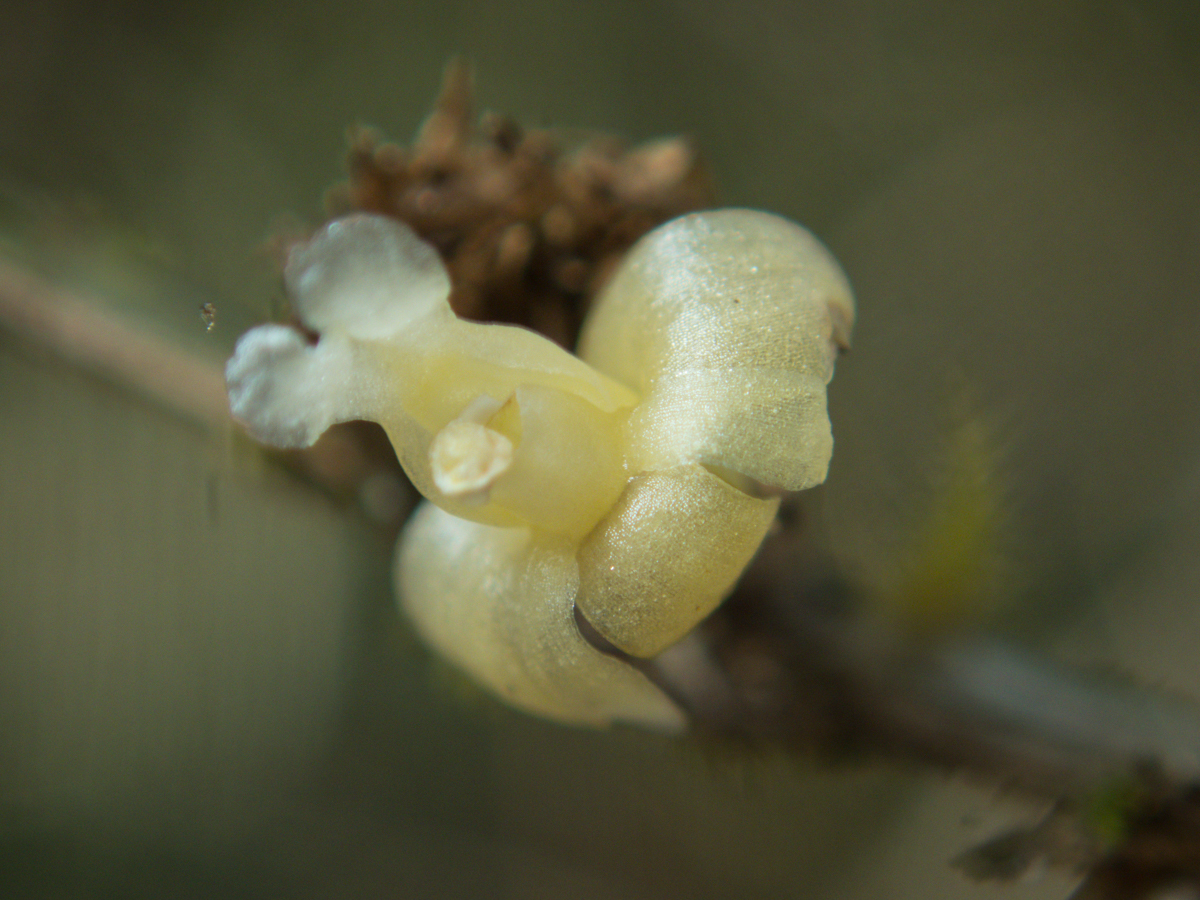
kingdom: Plantae
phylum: Tracheophyta
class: Liliopsida
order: Asparagales
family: Orchidaceae
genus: Dendrobium
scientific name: Dendrobium aloifolium
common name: Aloe-like dendrobium
